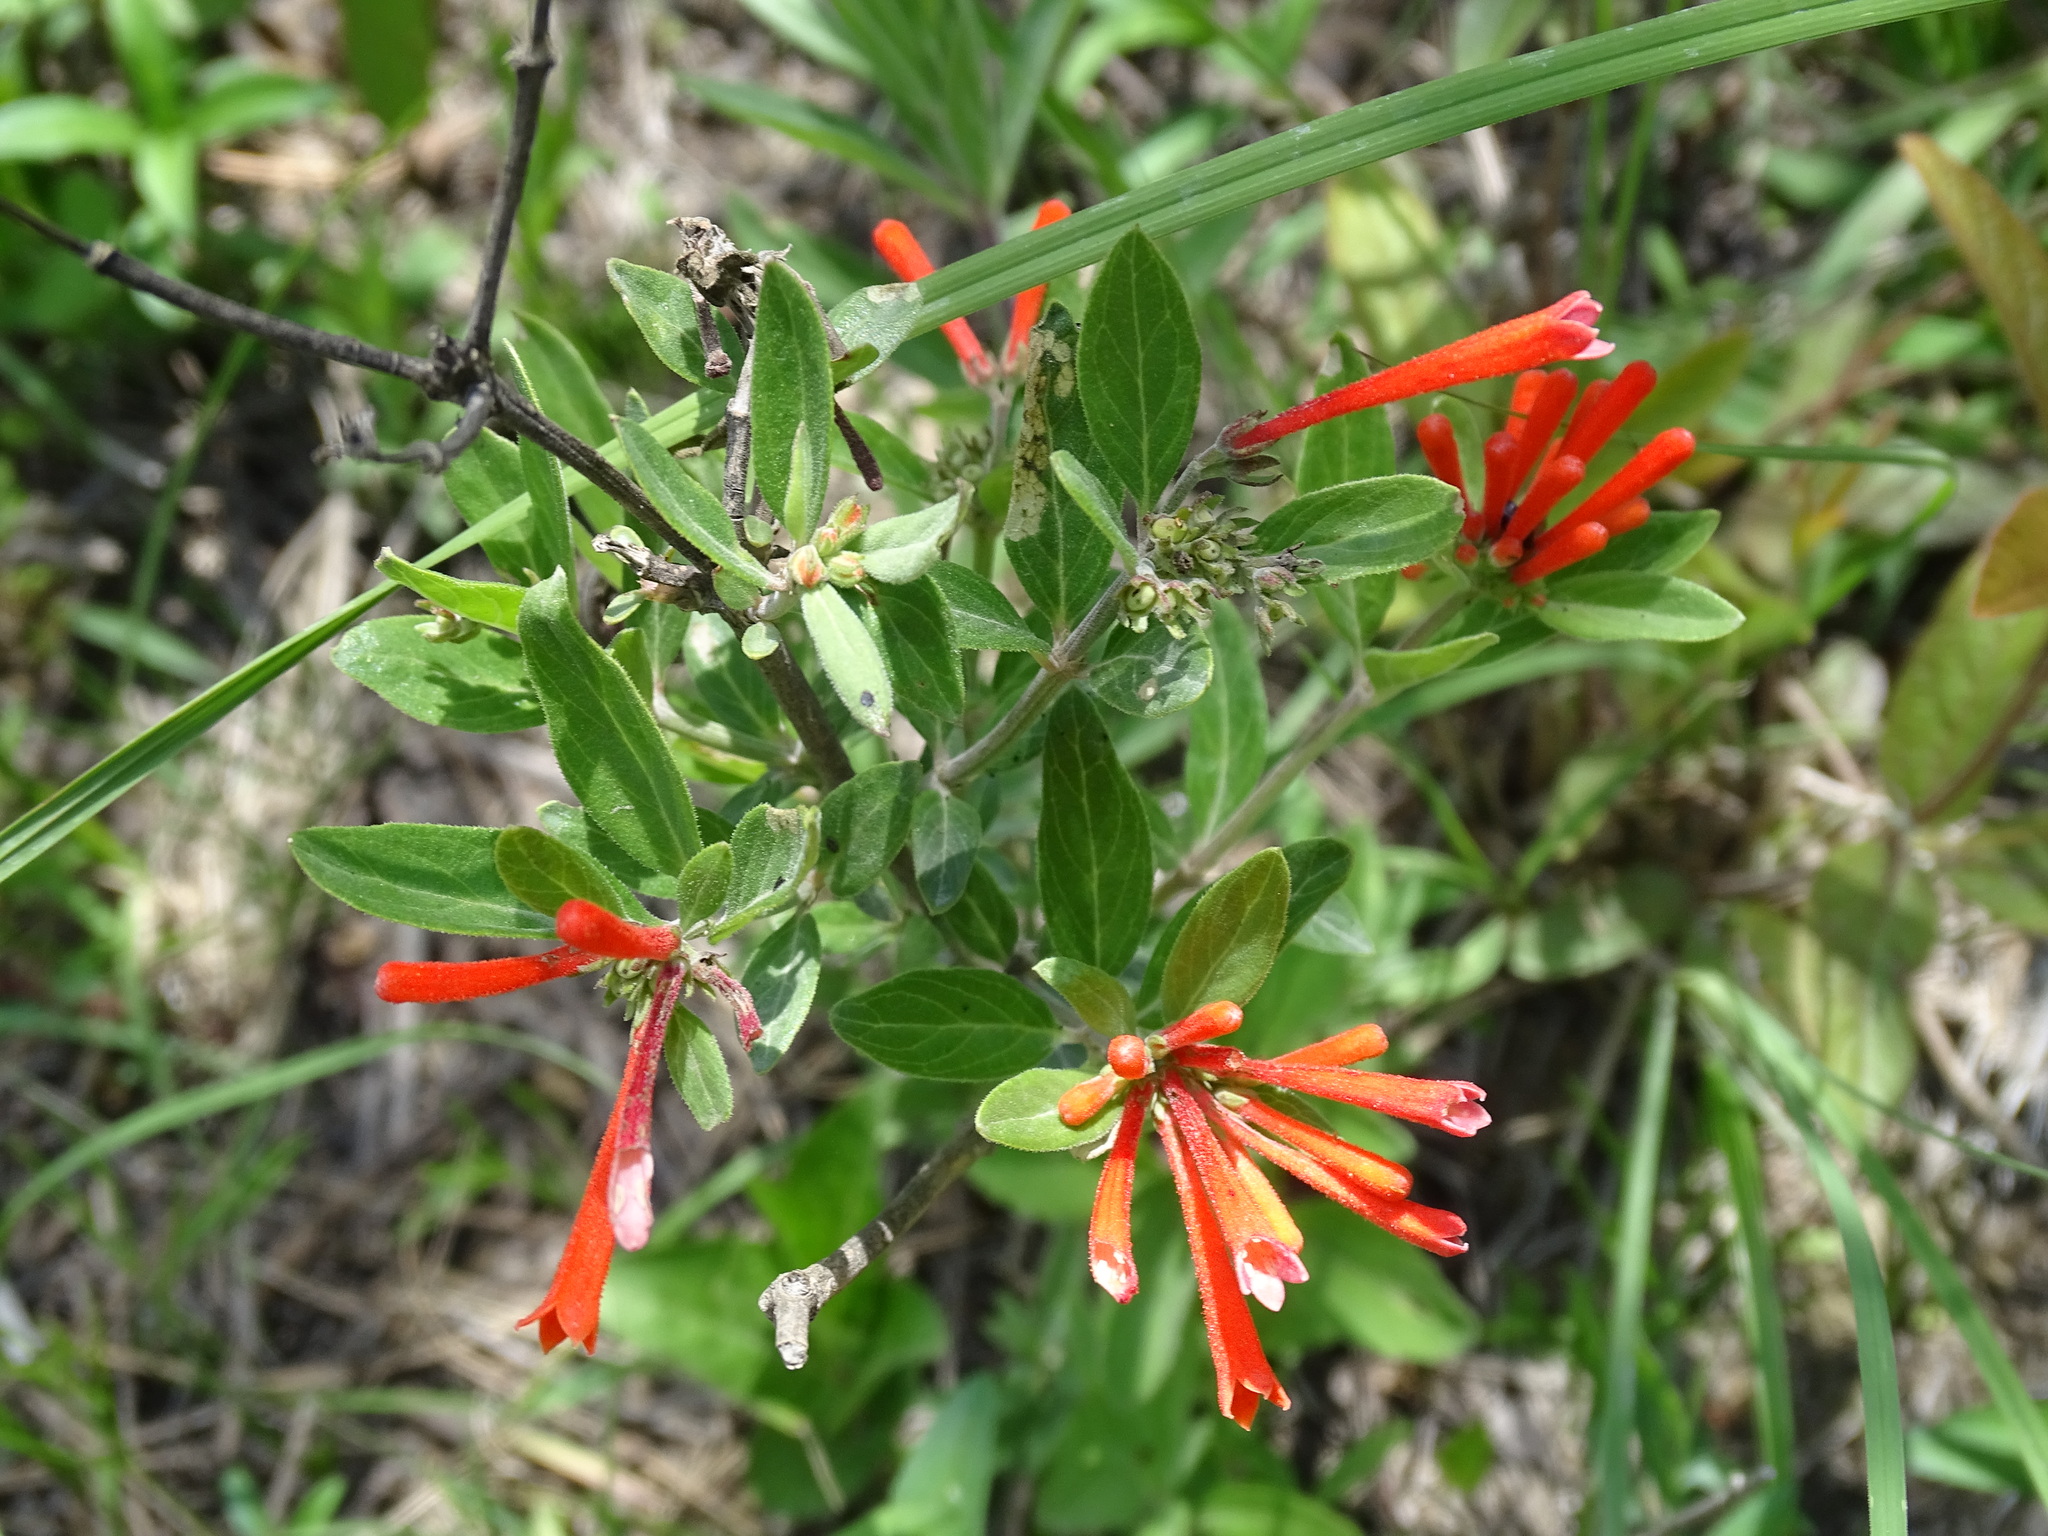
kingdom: Plantae
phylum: Tracheophyta
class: Magnoliopsida
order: Gentianales
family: Rubiaceae
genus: Bouvardia
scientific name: Bouvardia ternifolia
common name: Scarlet bouvardia
